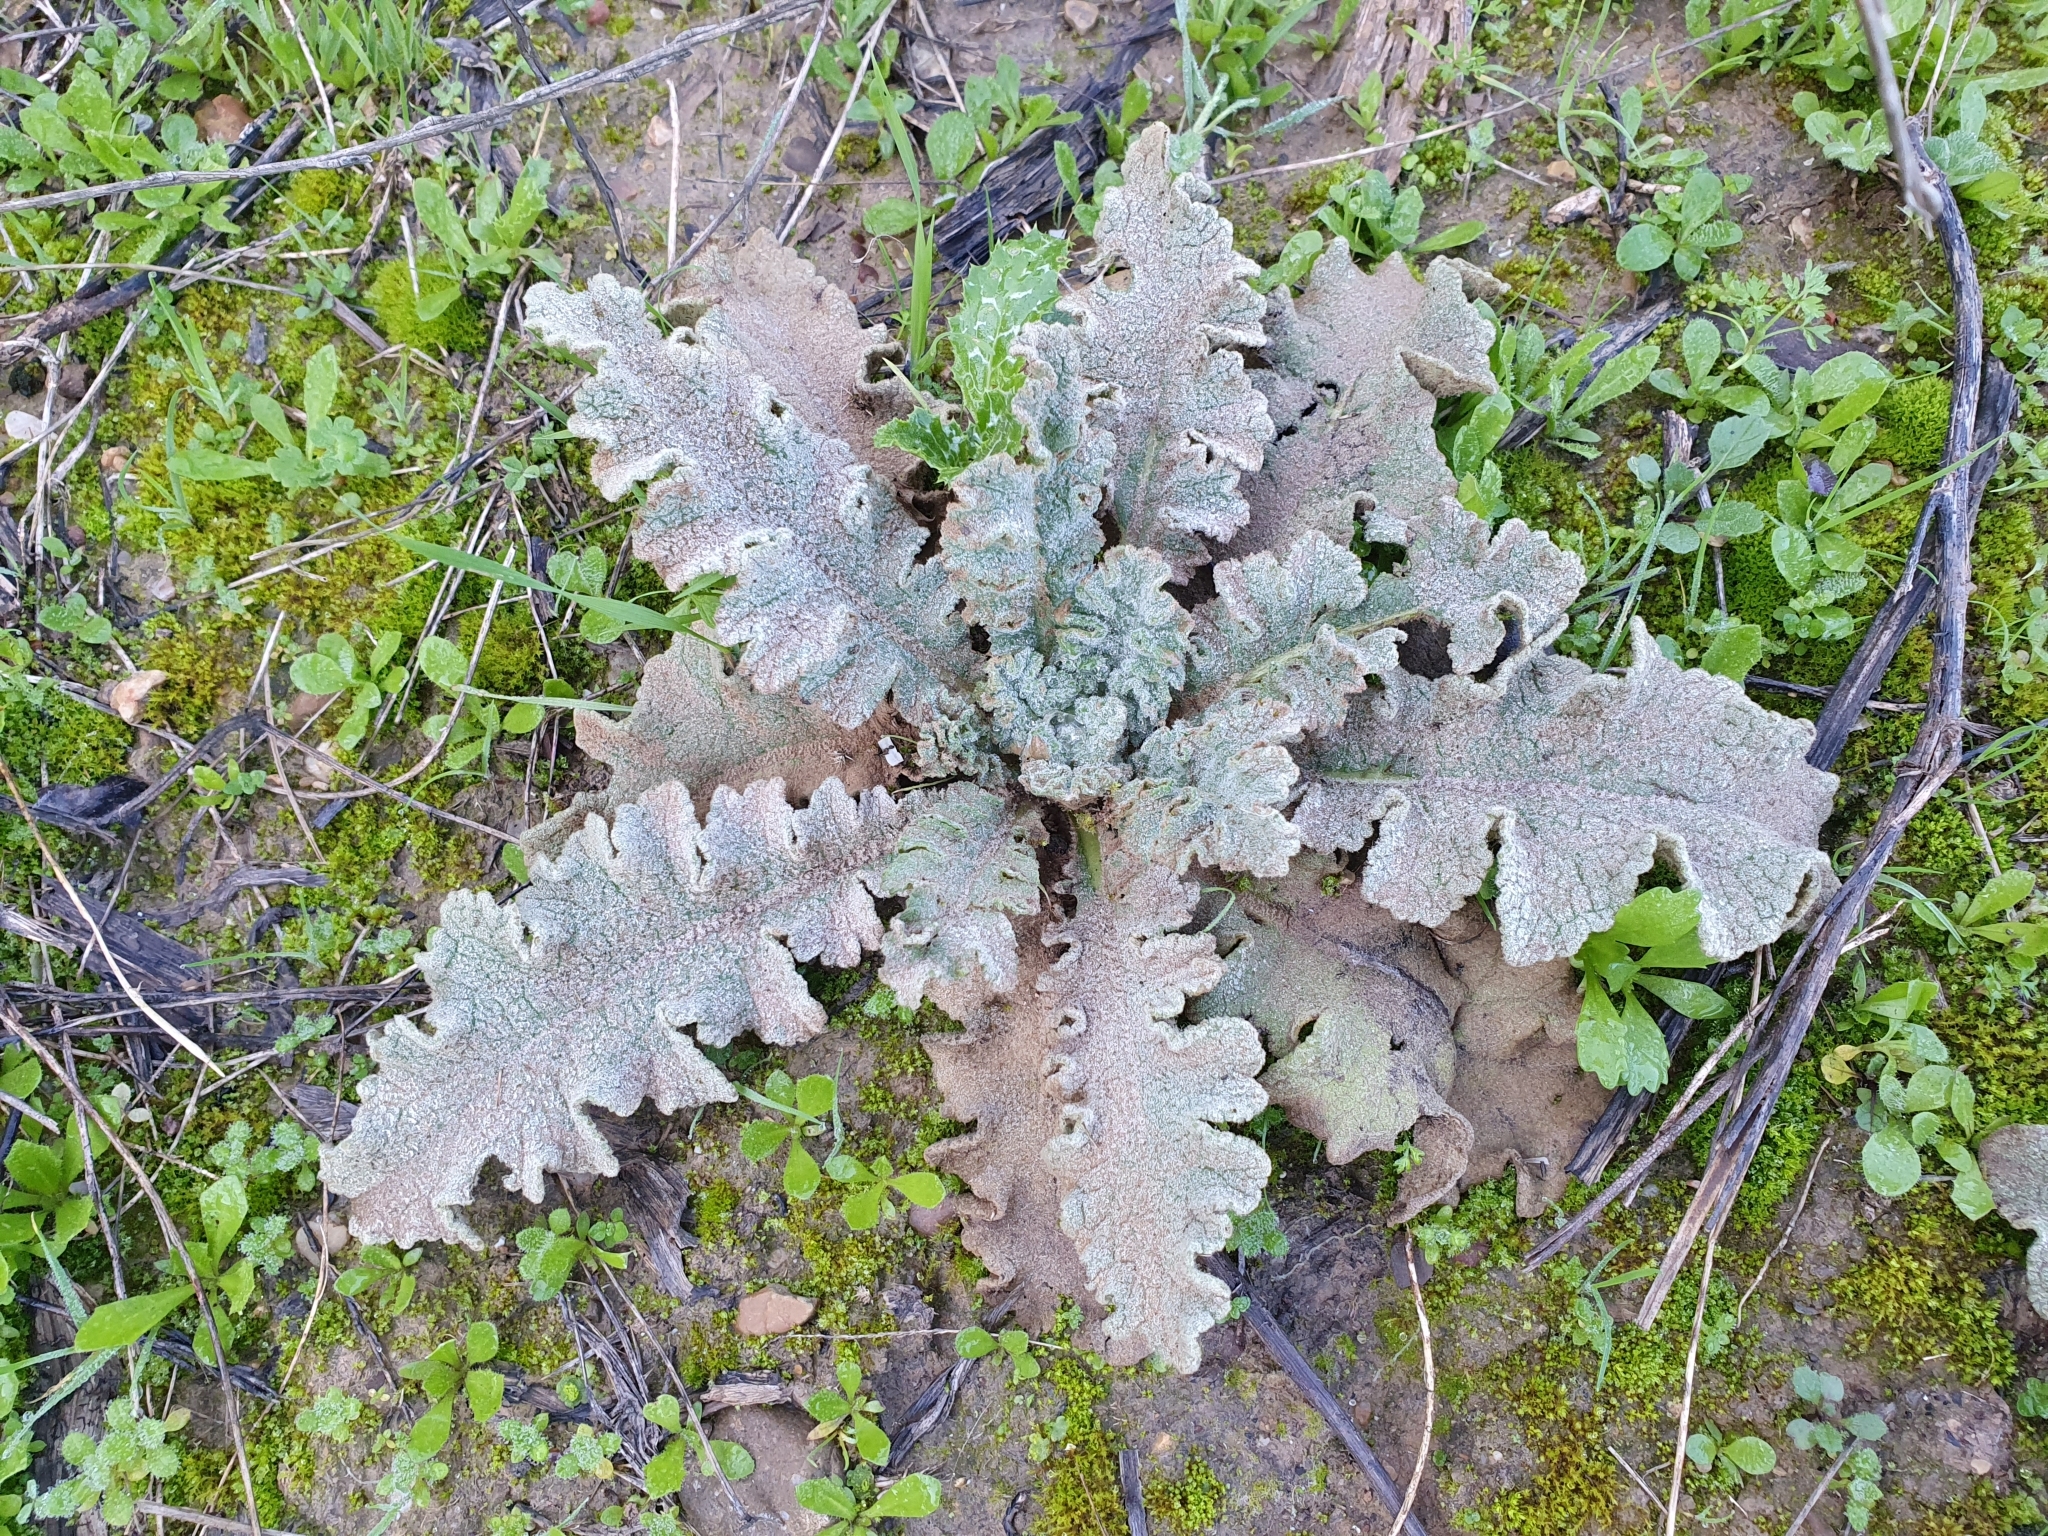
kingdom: Plantae
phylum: Tracheophyta
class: Magnoliopsida
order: Lamiales
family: Scrophulariaceae
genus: Verbascum
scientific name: Verbascum sinuatum
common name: Wavyleaf mullein
